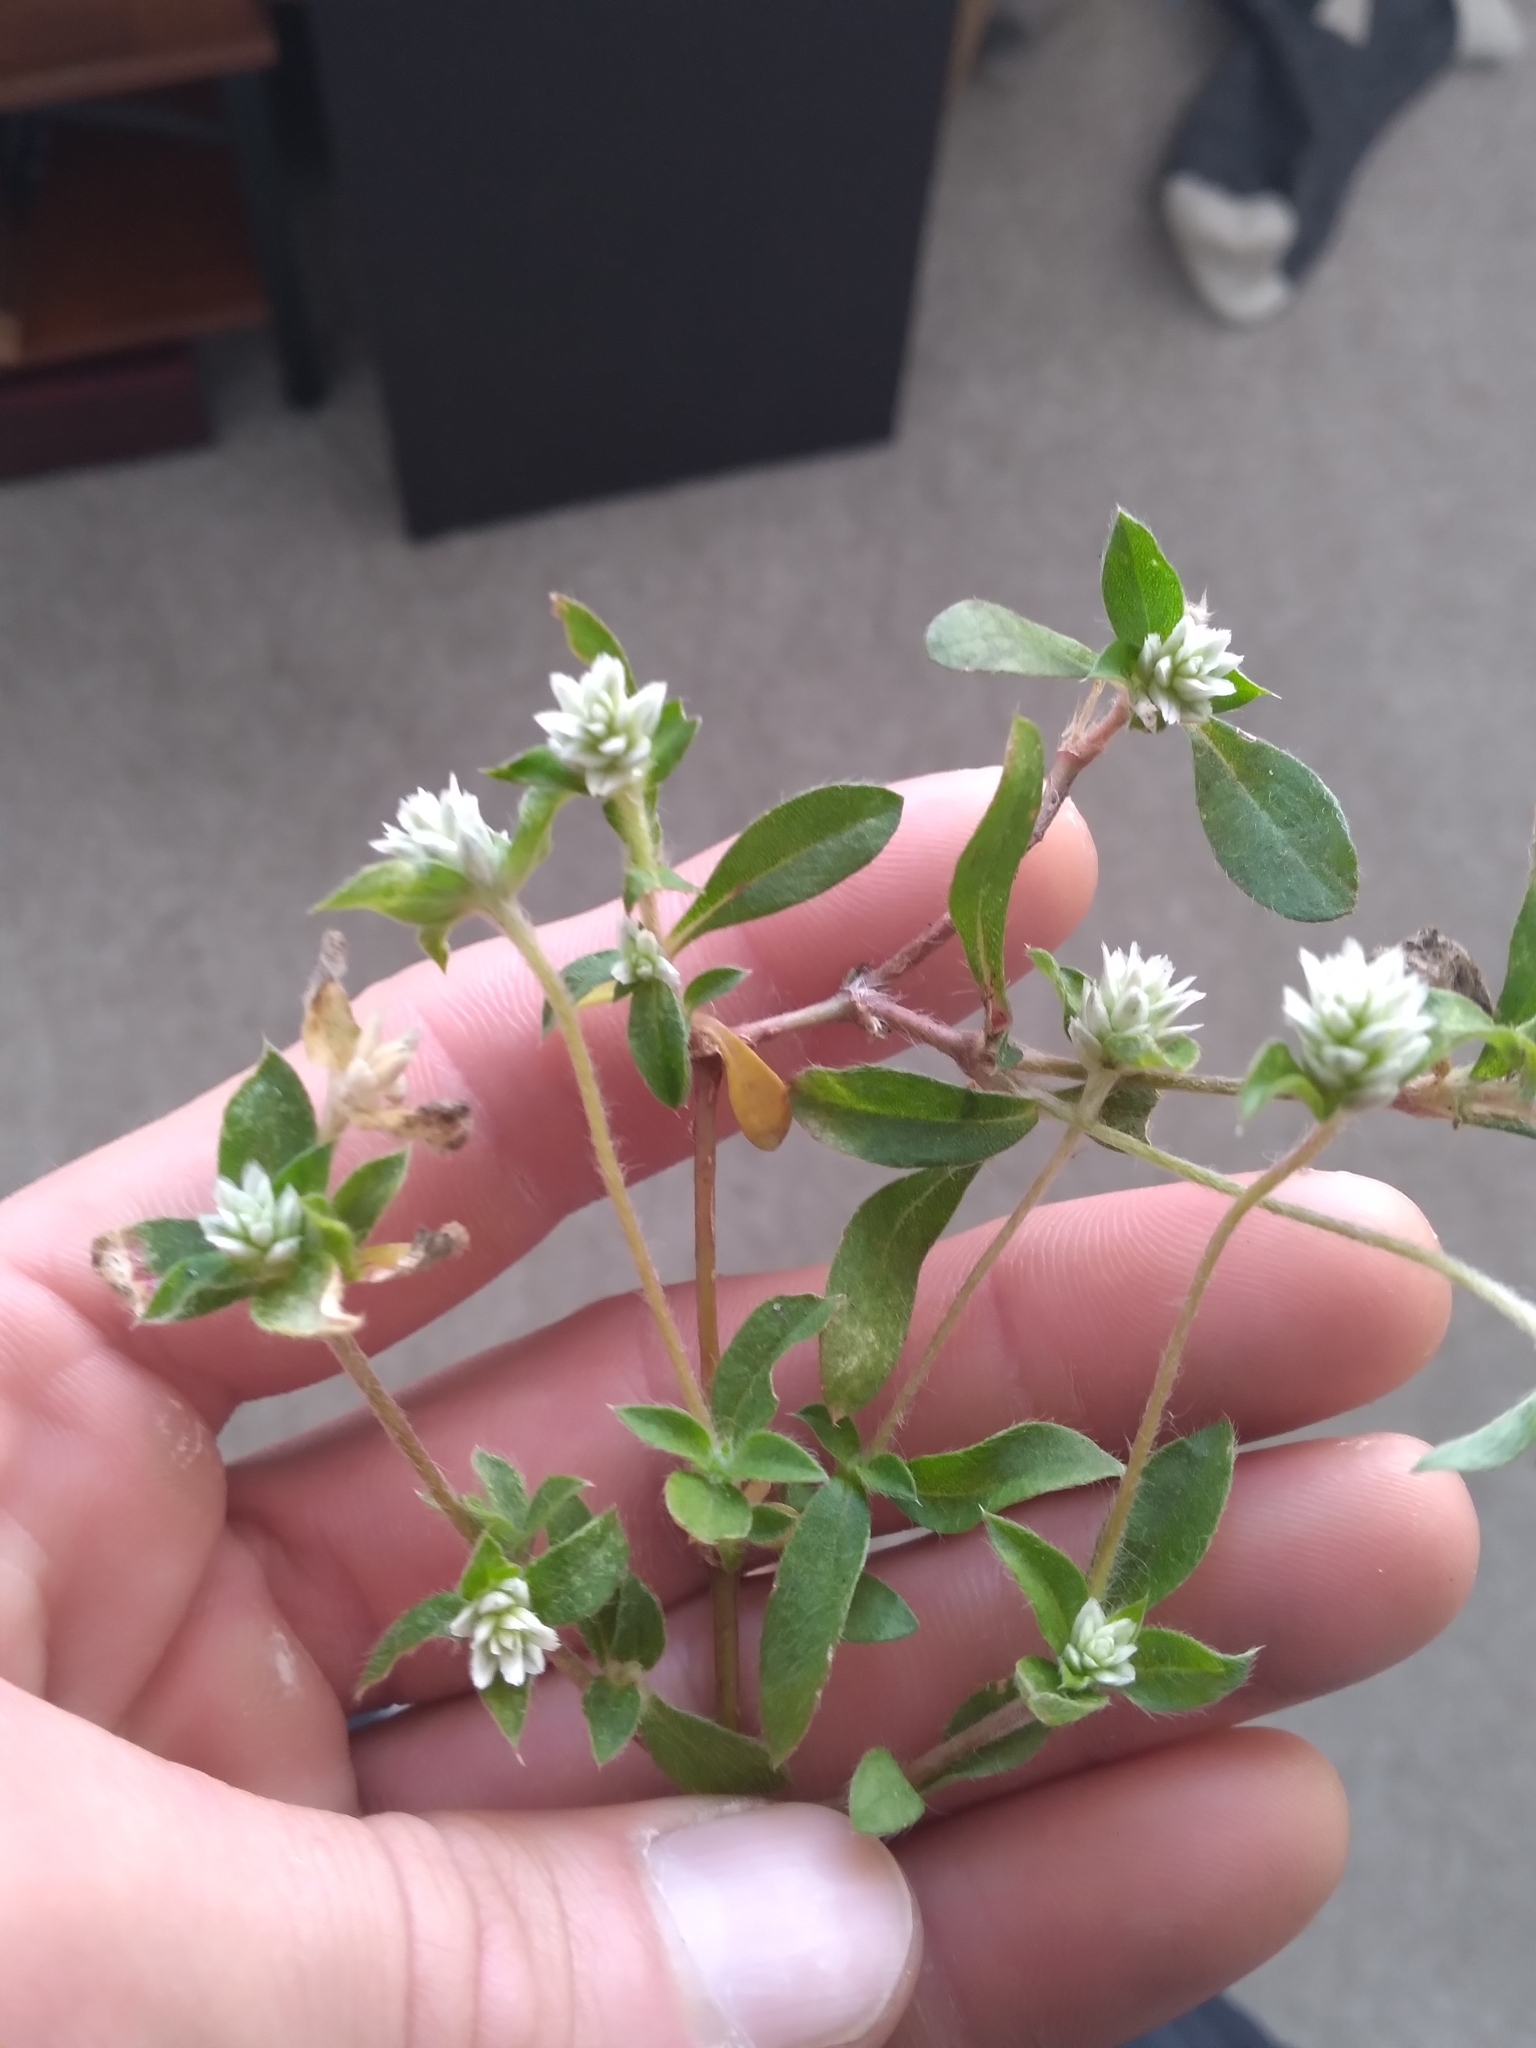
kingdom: Plantae
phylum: Tracheophyta
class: Magnoliopsida
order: Caryophyllales
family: Amaranthaceae
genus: Gomphrena
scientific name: Gomphrena serrata
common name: Arrasa con todo
